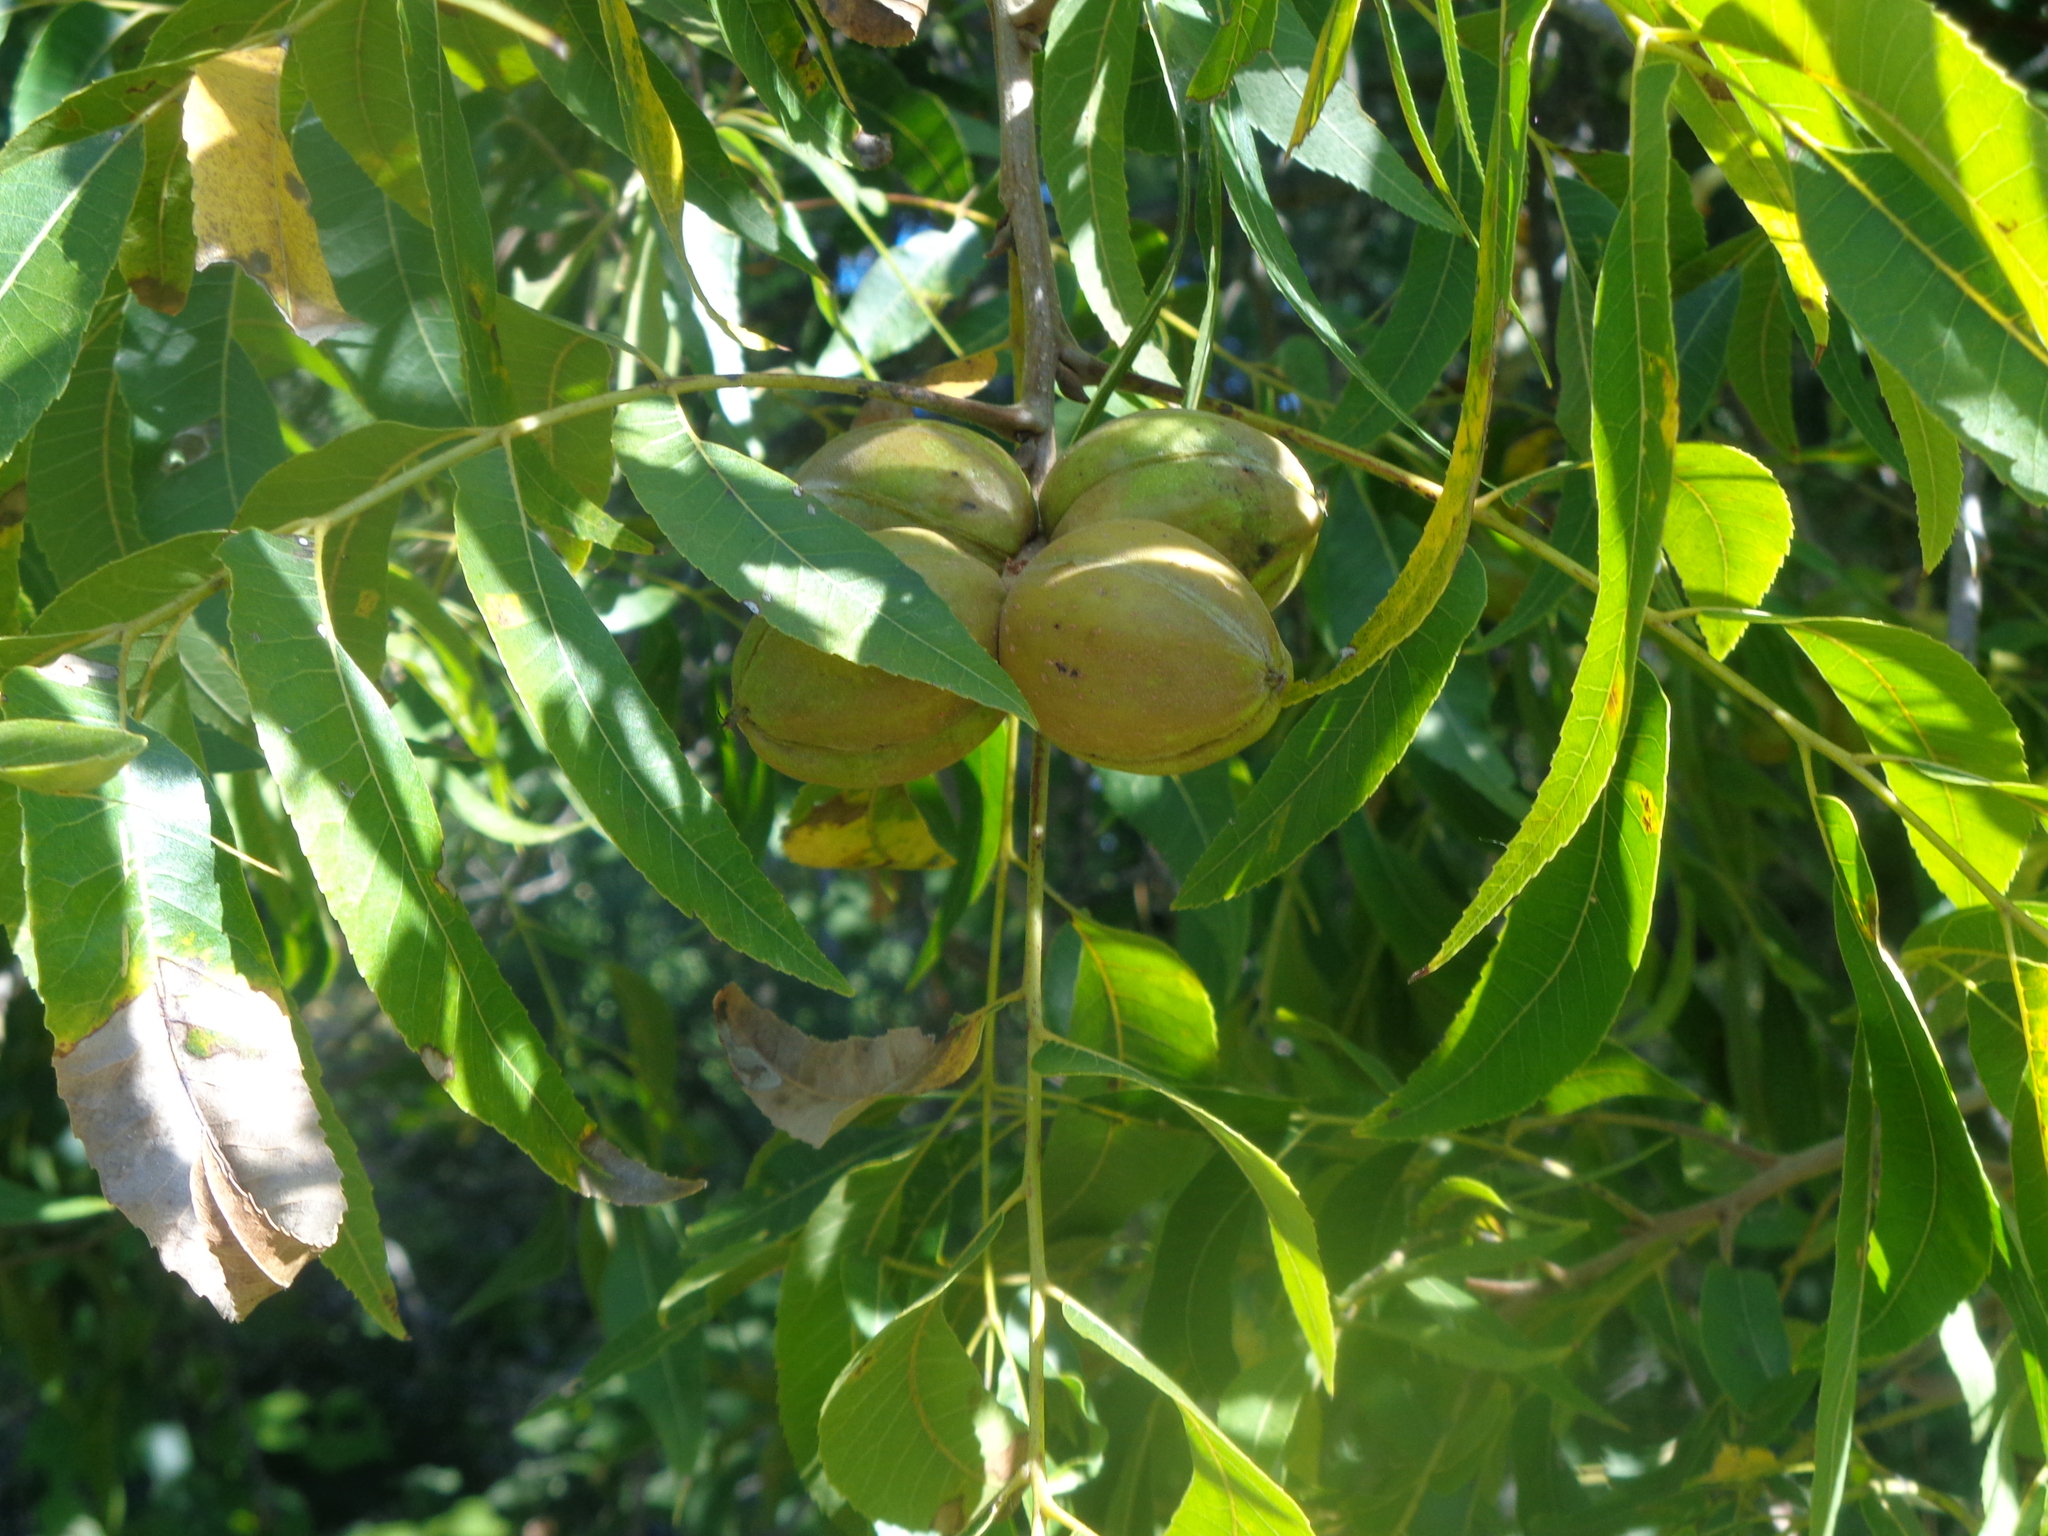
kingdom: Plantae
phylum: Tracheophyta
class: Magnoliopsida
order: Fagales
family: Juglandaceae
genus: Carya
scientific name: Carya illinoinensis
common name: Pecan
